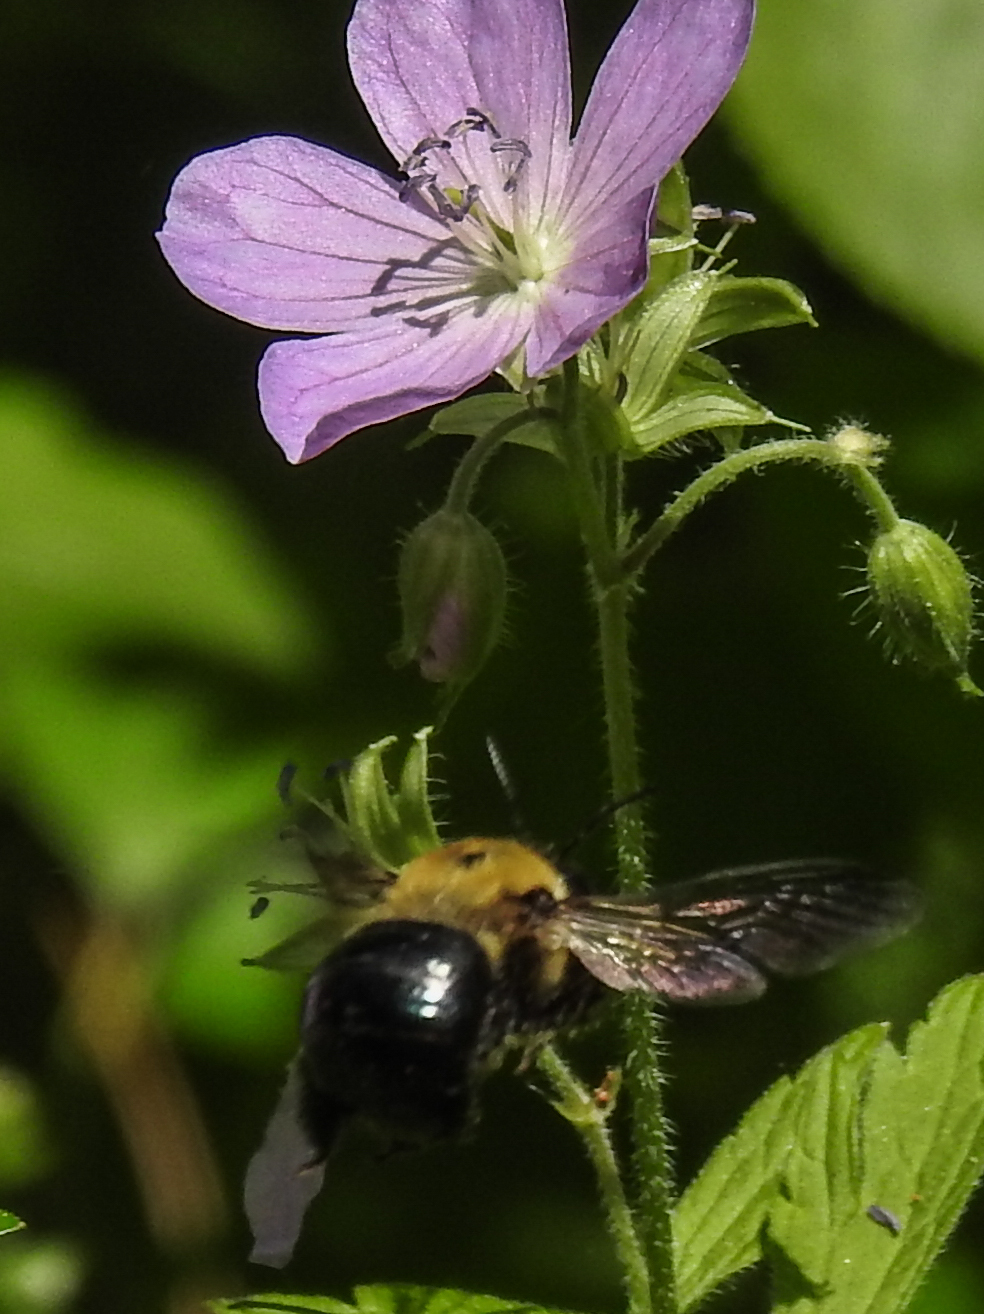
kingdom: Animalia
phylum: Arthropoda
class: Insecta
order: Hymenoptera
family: Apidae
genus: Xylocopa
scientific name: Xylocopa virginica
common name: Carpenter bee
